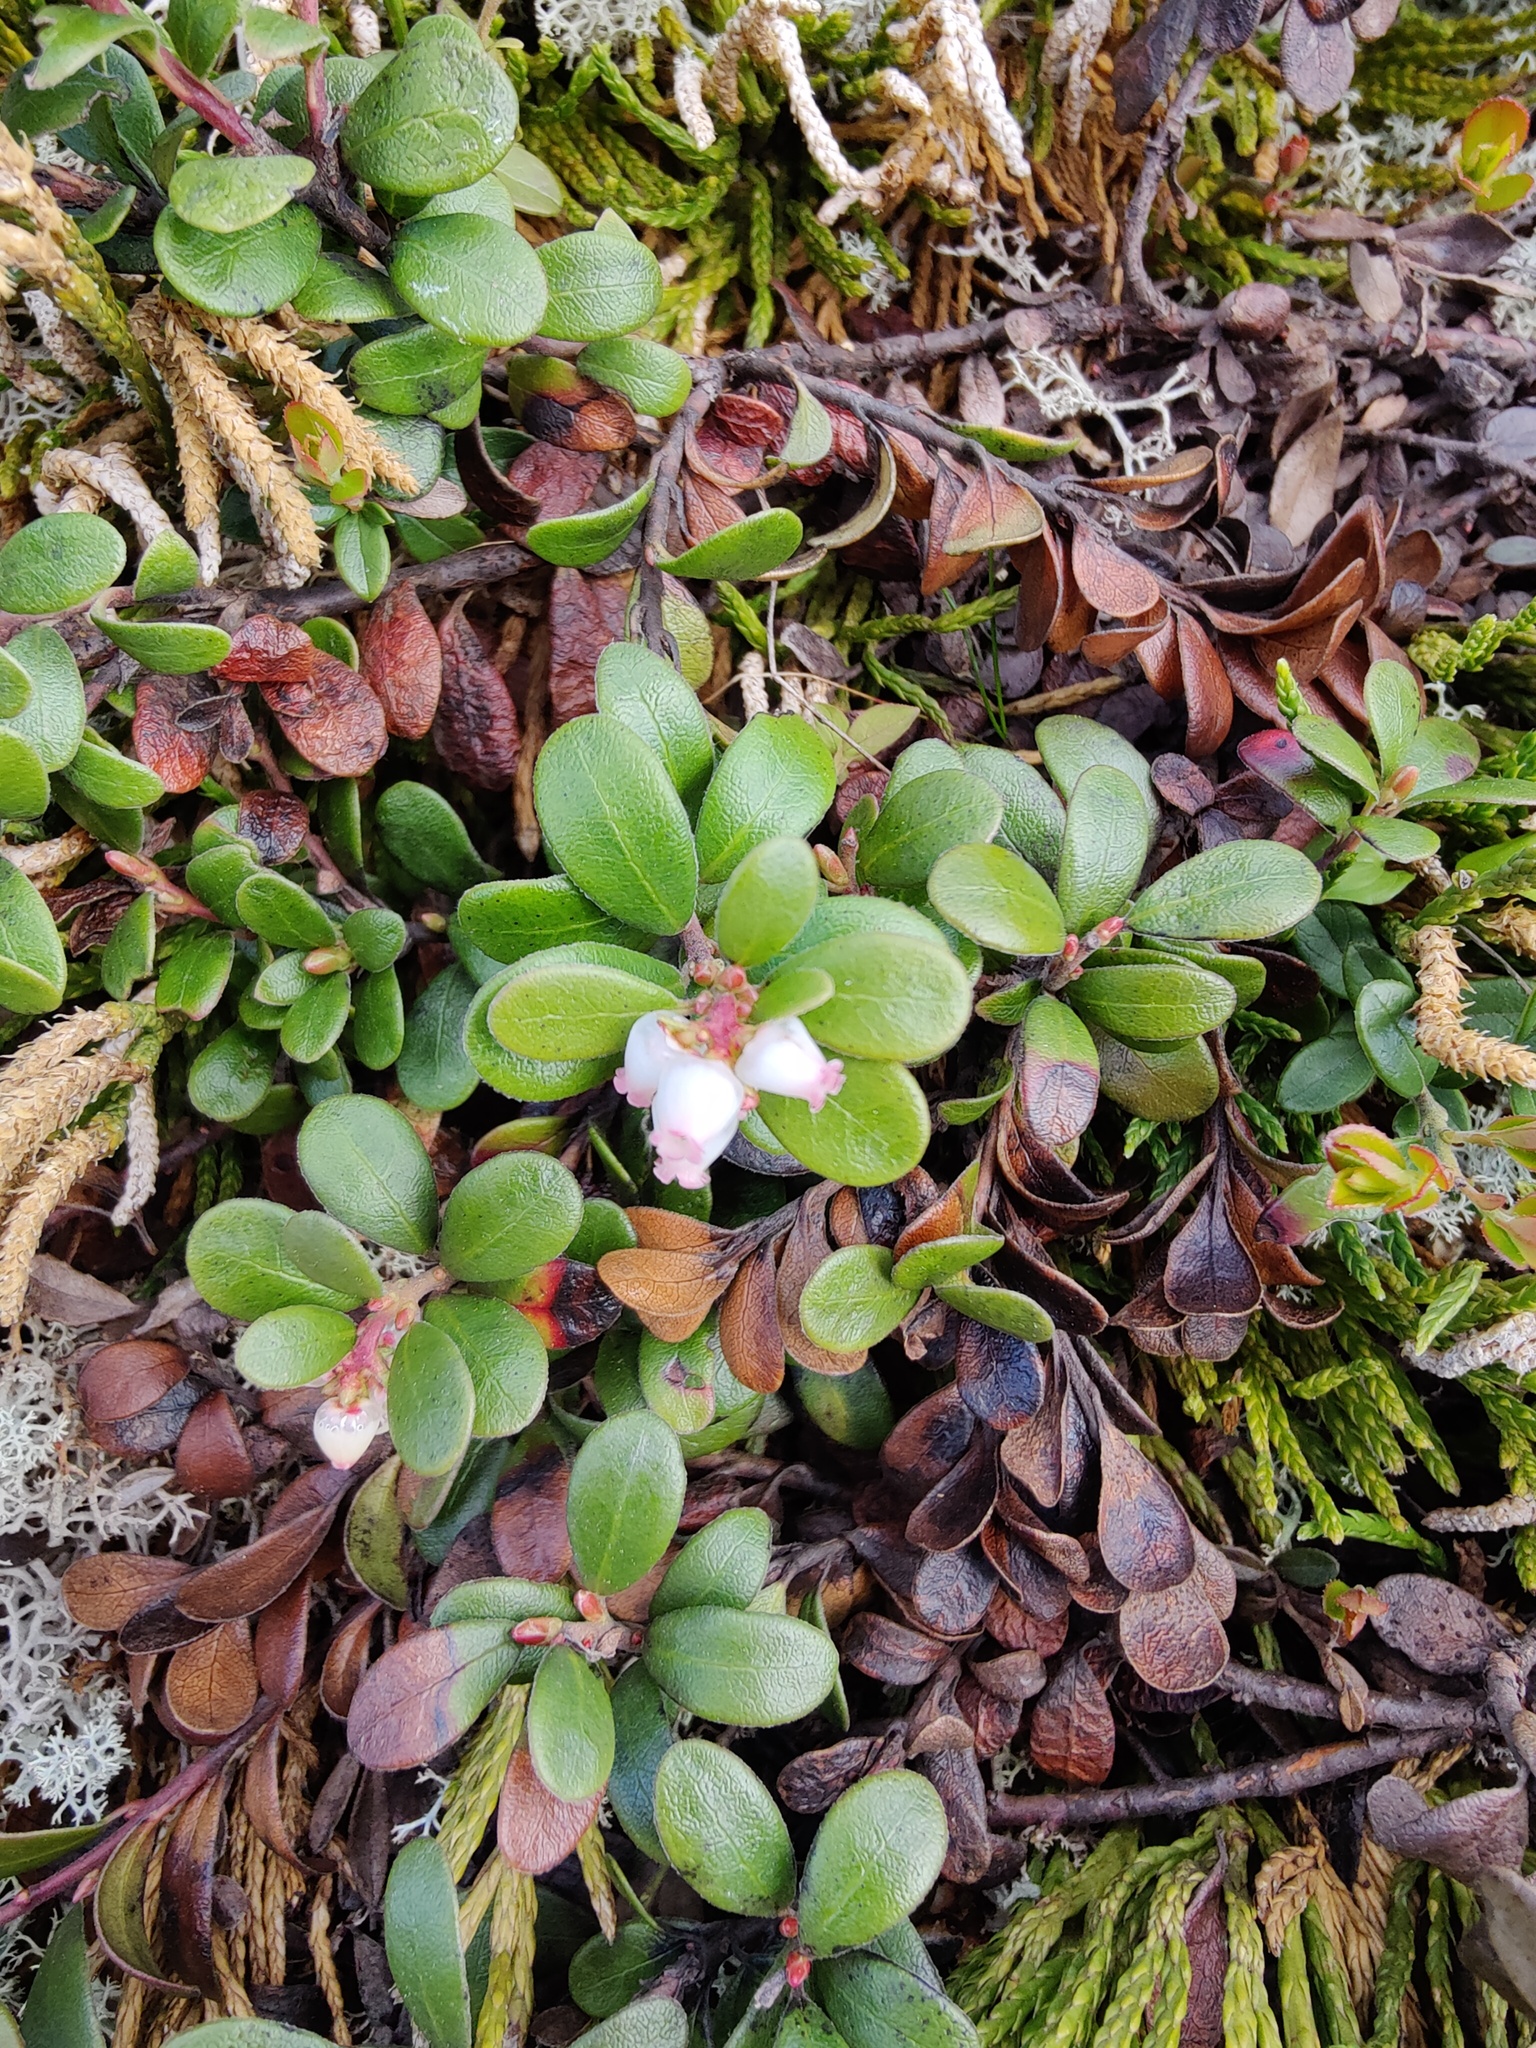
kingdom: Plantae
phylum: Tracheophyta
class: Magnoliopsida
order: Ericales
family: Ericaceae
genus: Vaccinium
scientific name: Vaccinium vitis-idaea
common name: Cowberry
